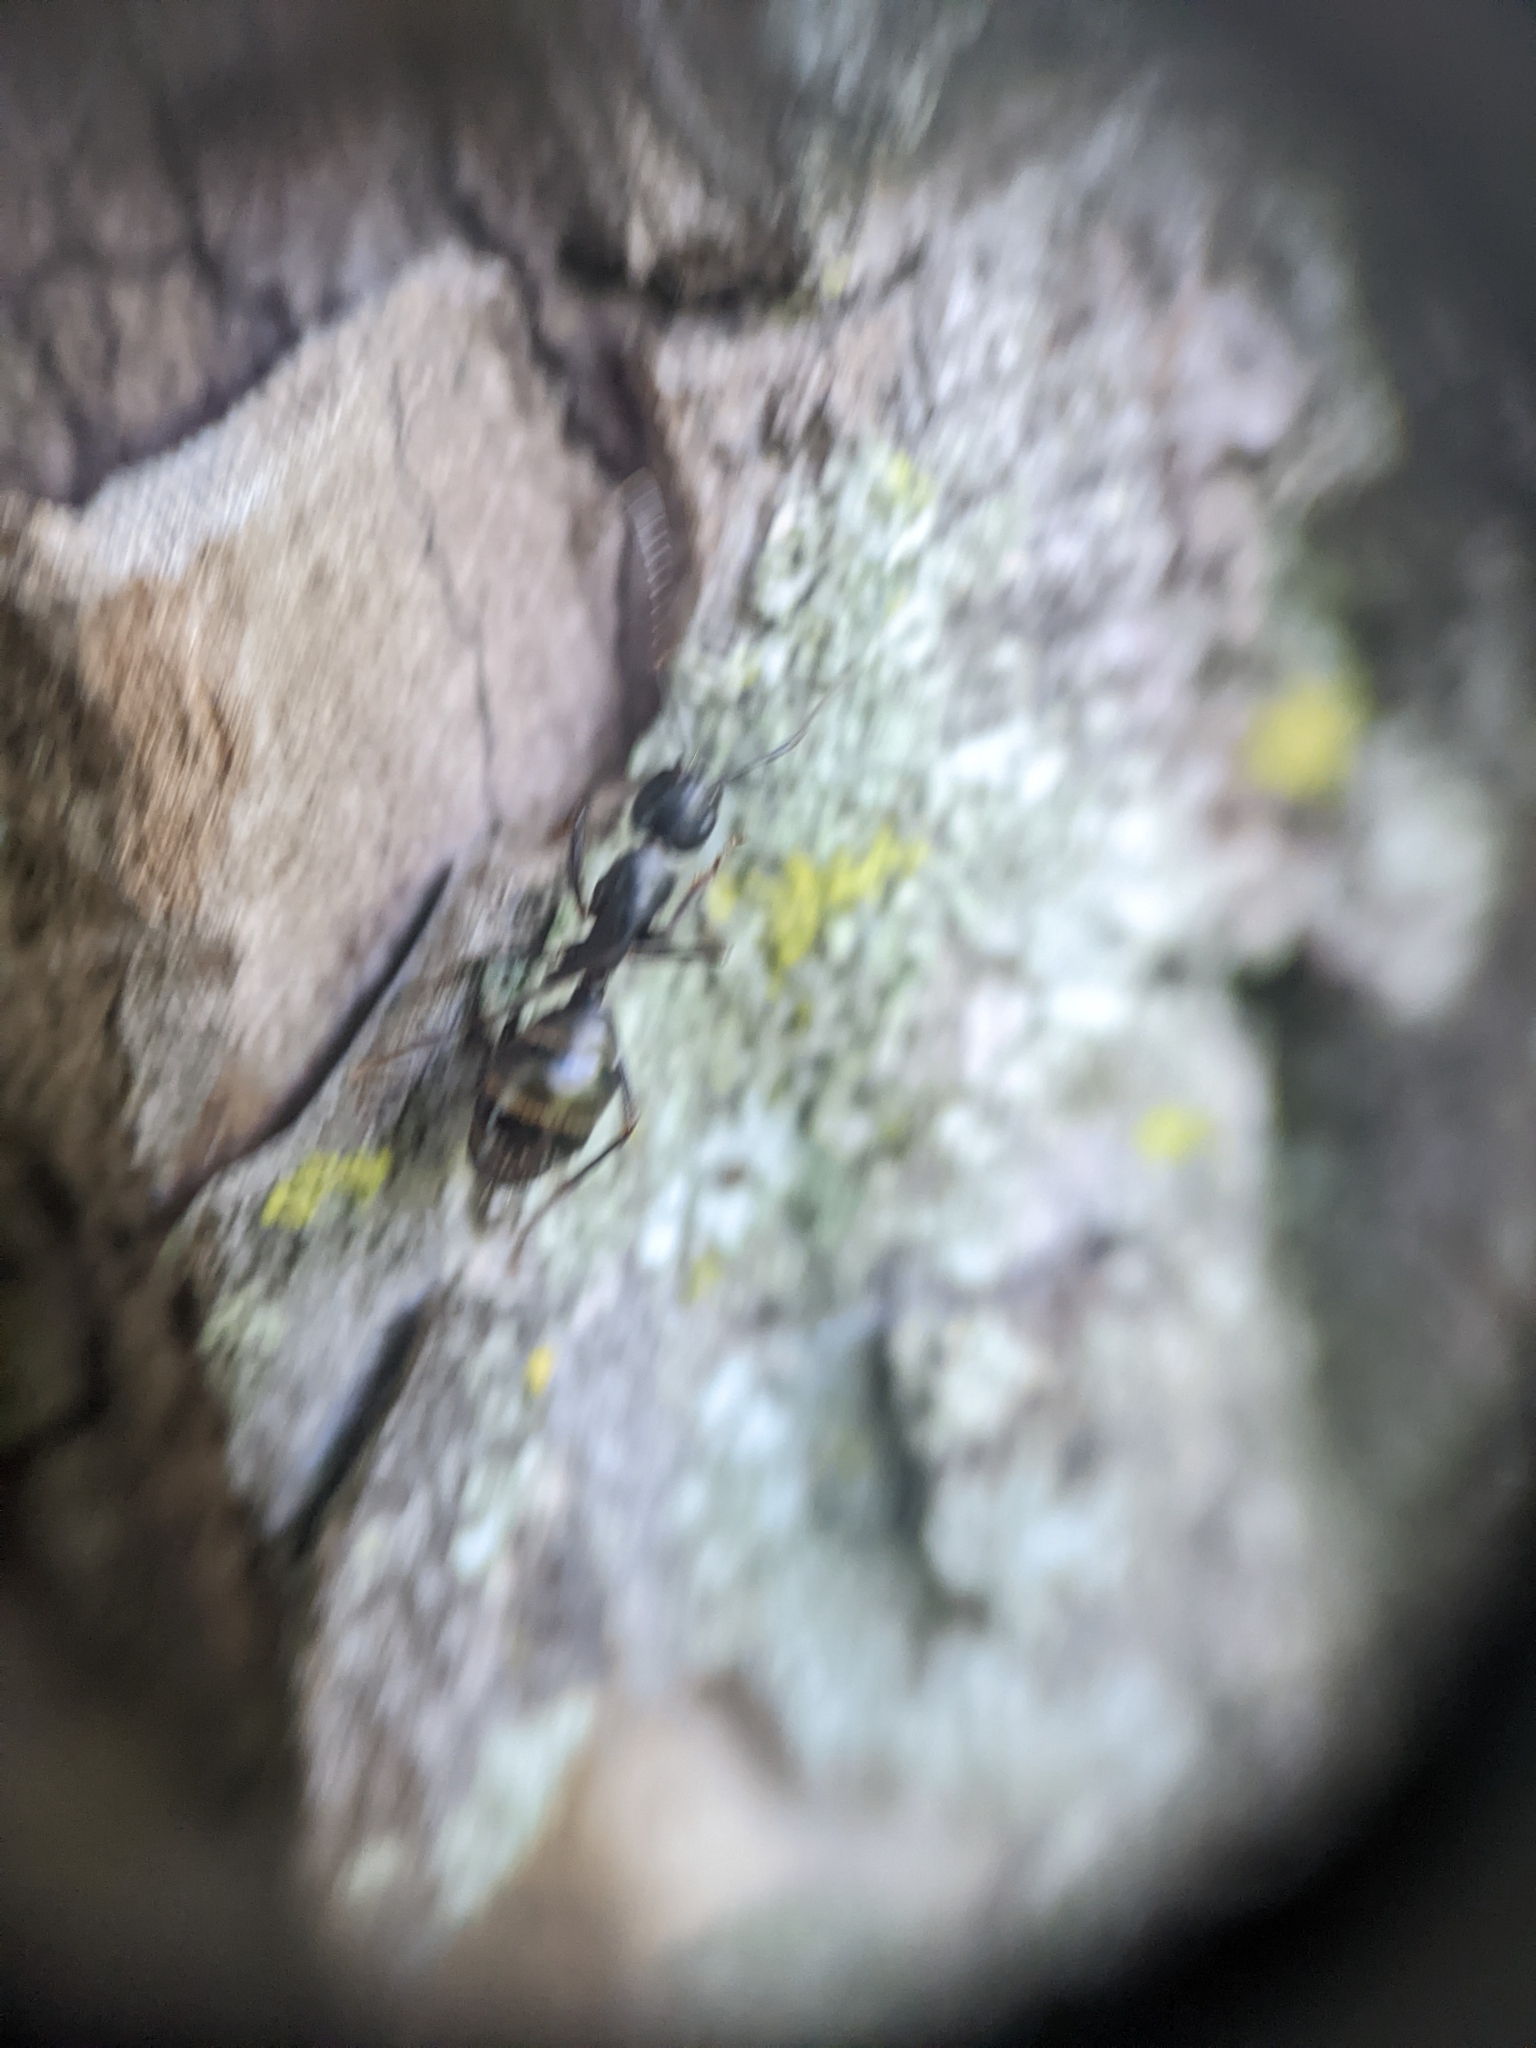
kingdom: Animalia
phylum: Arthropoda
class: Insecta
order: Hymenoptera
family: Formicidae
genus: Camponotus
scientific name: Camponotus pennsylvanicus
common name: Black carpenter ant
